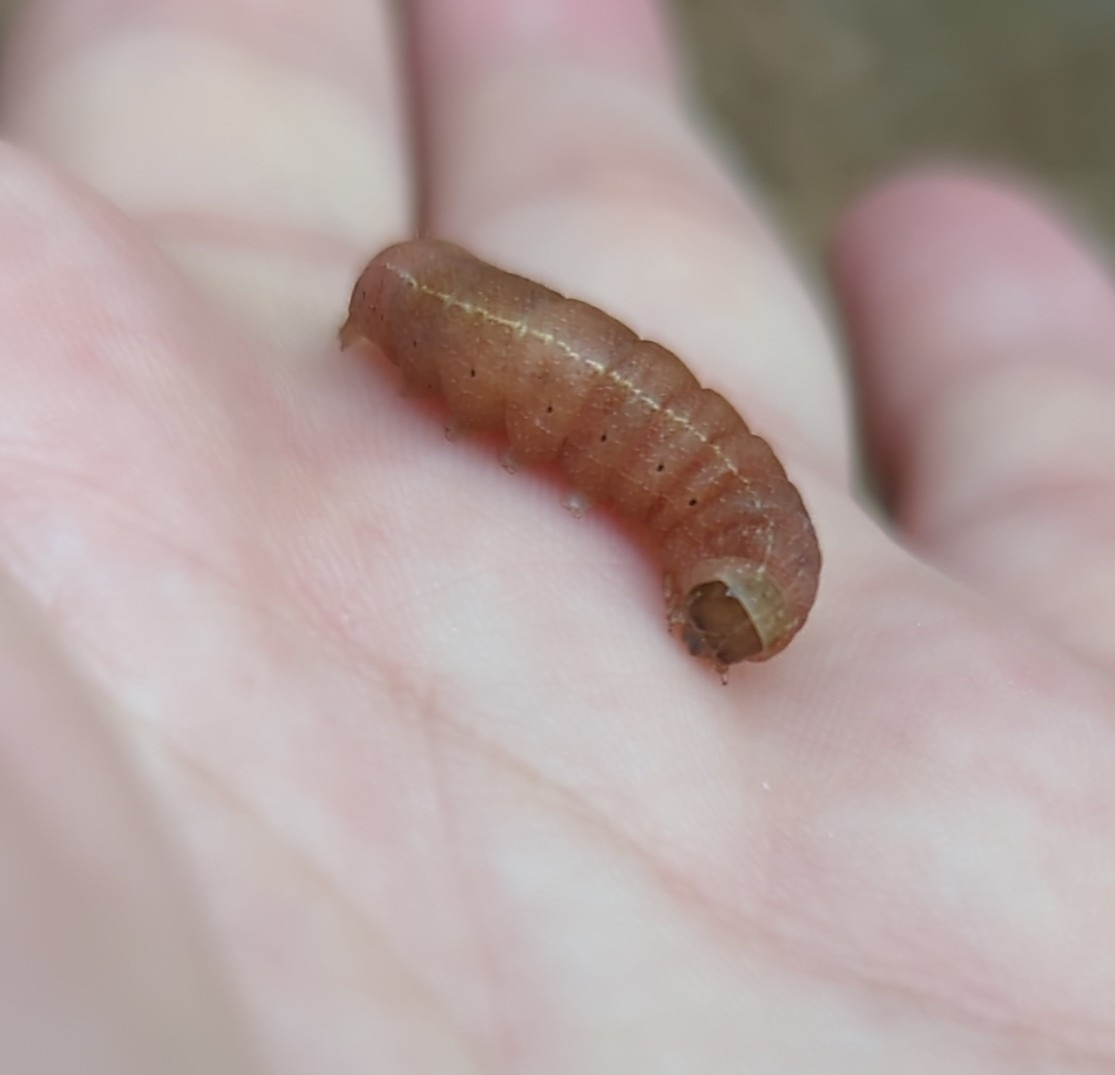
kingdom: Animalia
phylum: Arthropoda
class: Insecta
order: Lepidoptera
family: Noctuidae
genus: Achatia
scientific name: Achatia mucens
